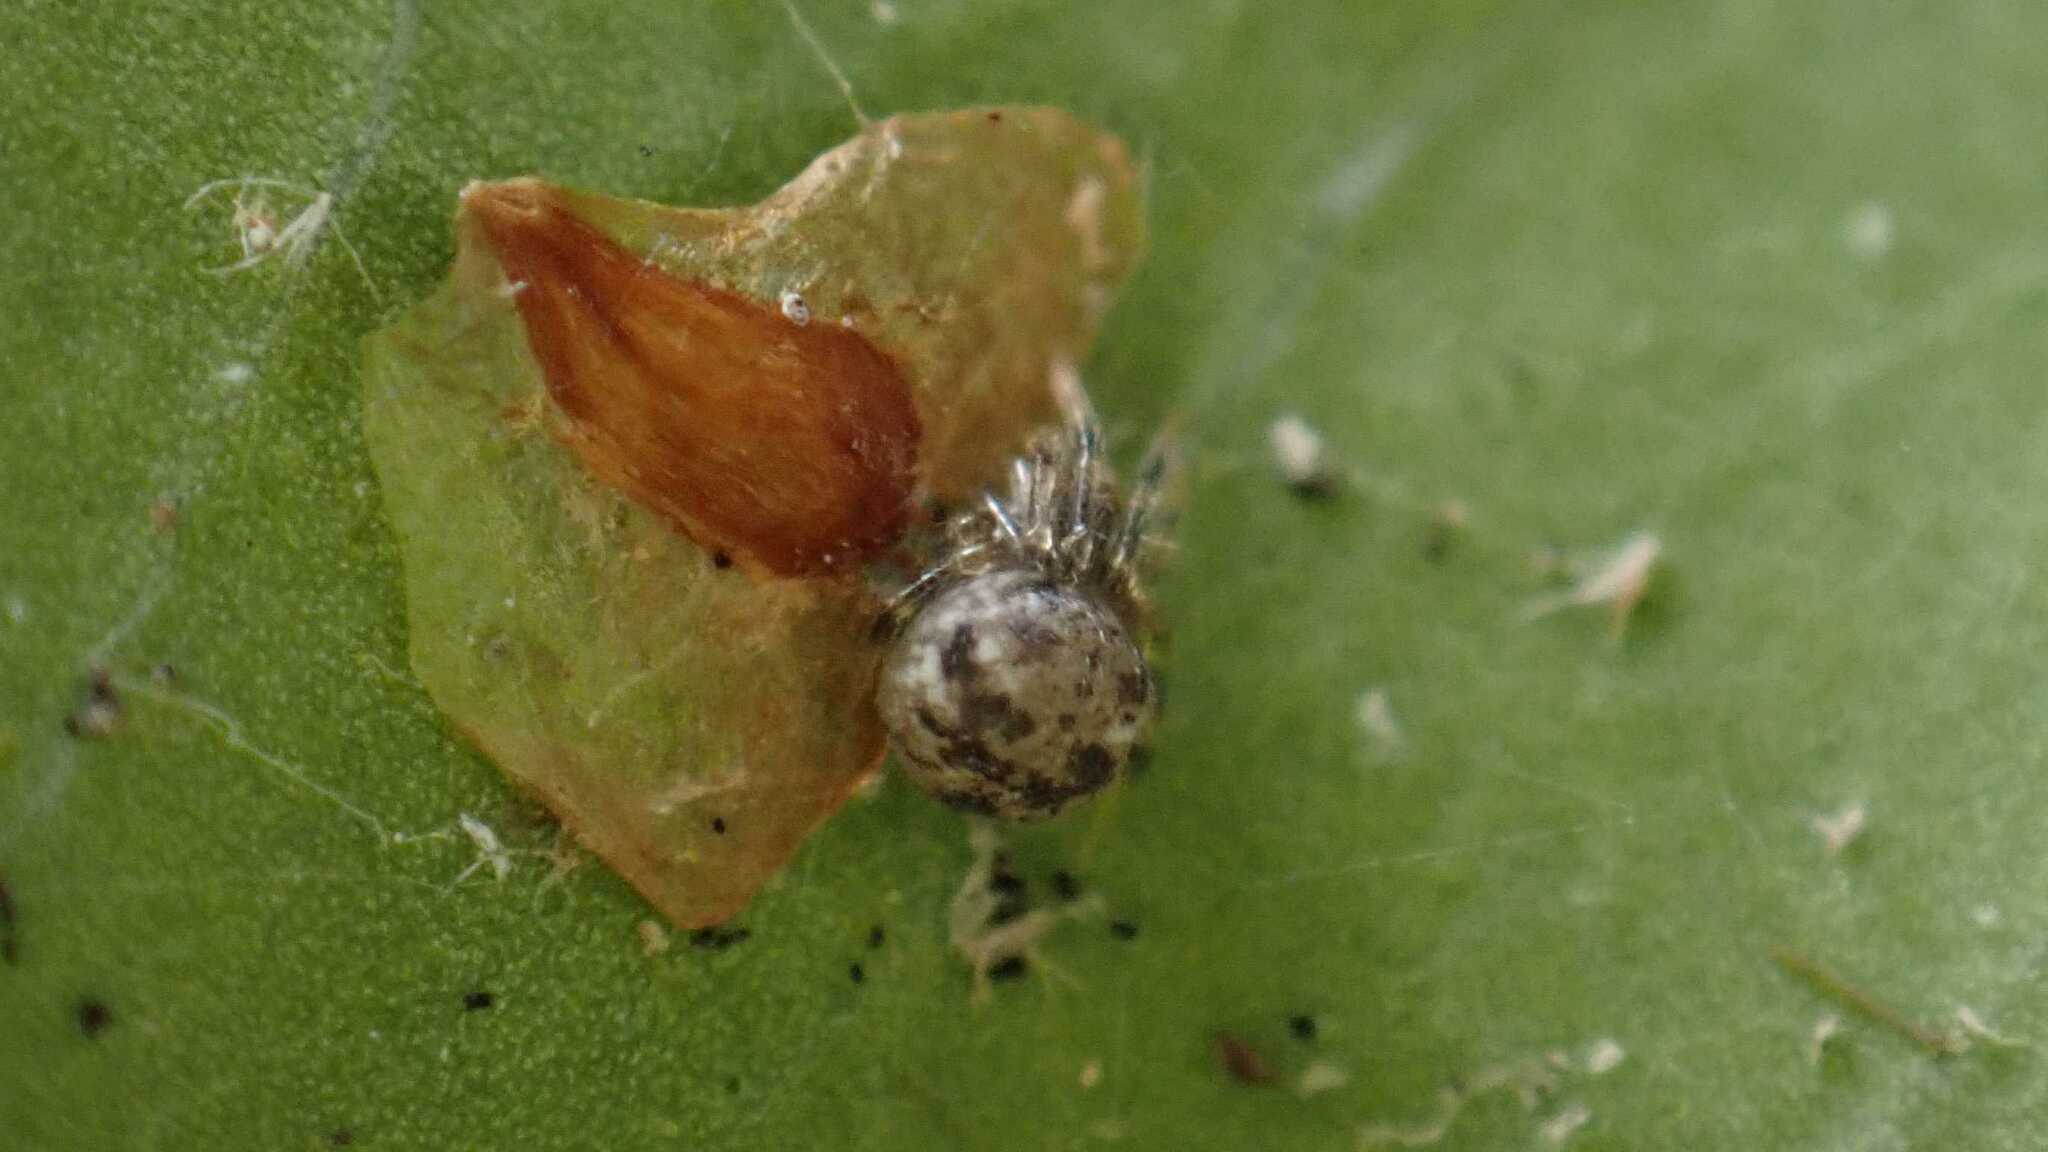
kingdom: Animalia
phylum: Arthropoda
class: Arachnida
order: Araneae
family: Theridiidae
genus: Paidiscura
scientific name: Paidiscura pallens
